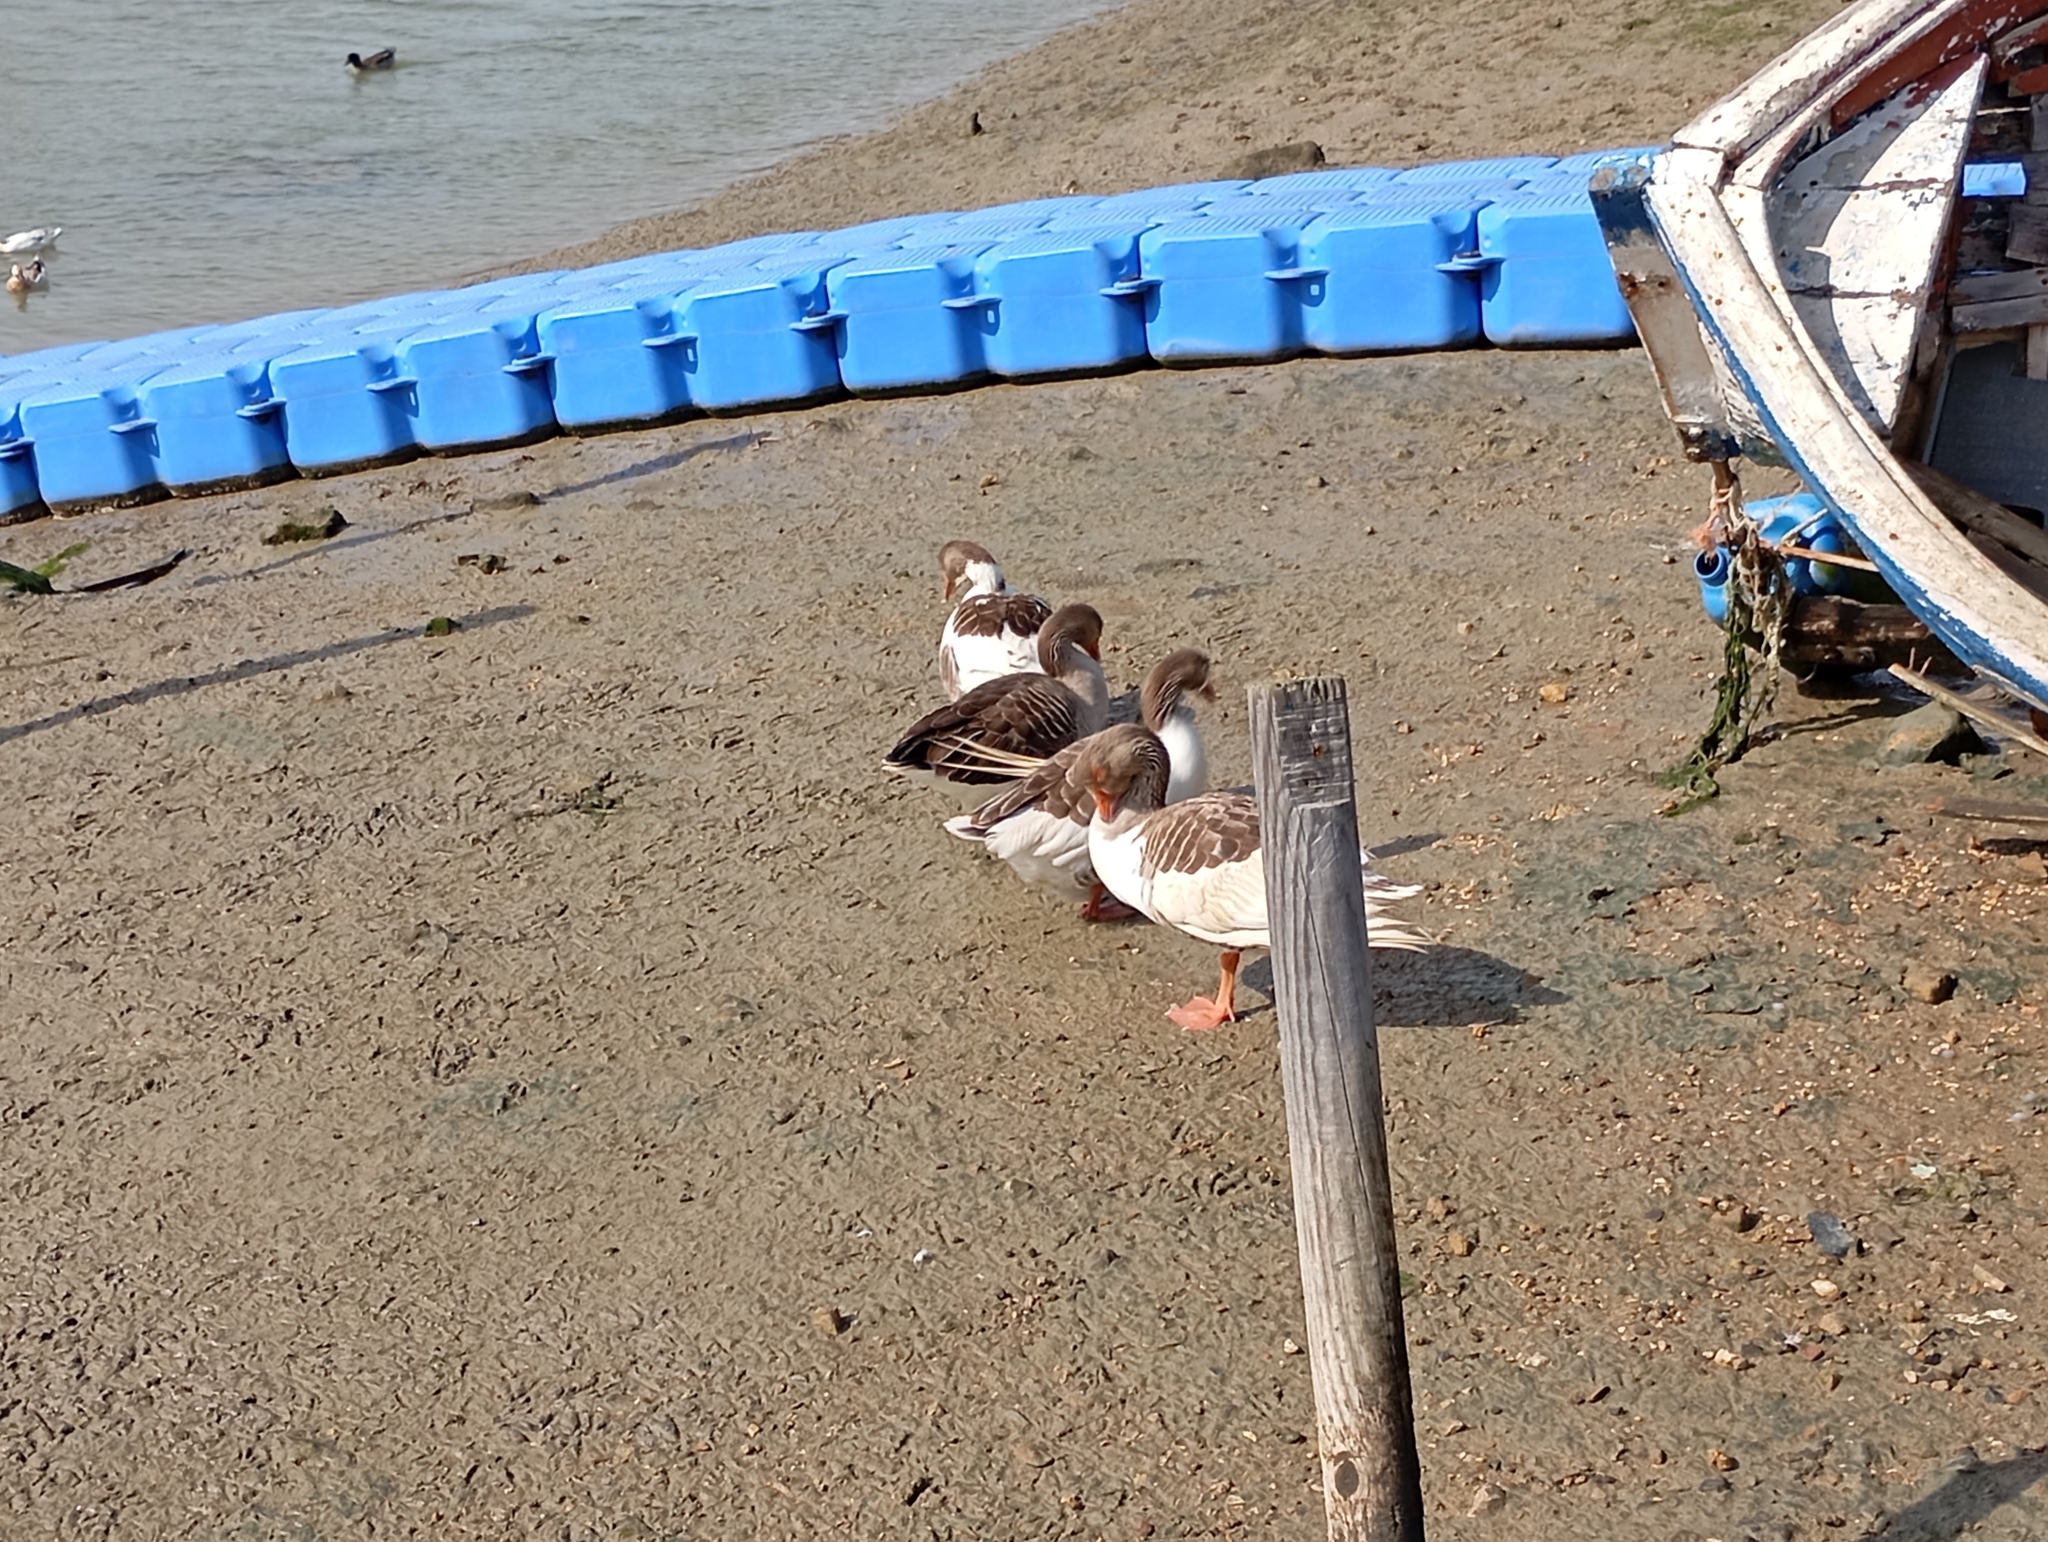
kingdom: Animalia
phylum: Chordata
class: Aves
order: Anseriformes
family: Anatidae
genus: Anser
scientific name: Anser anser
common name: Greylag goose
